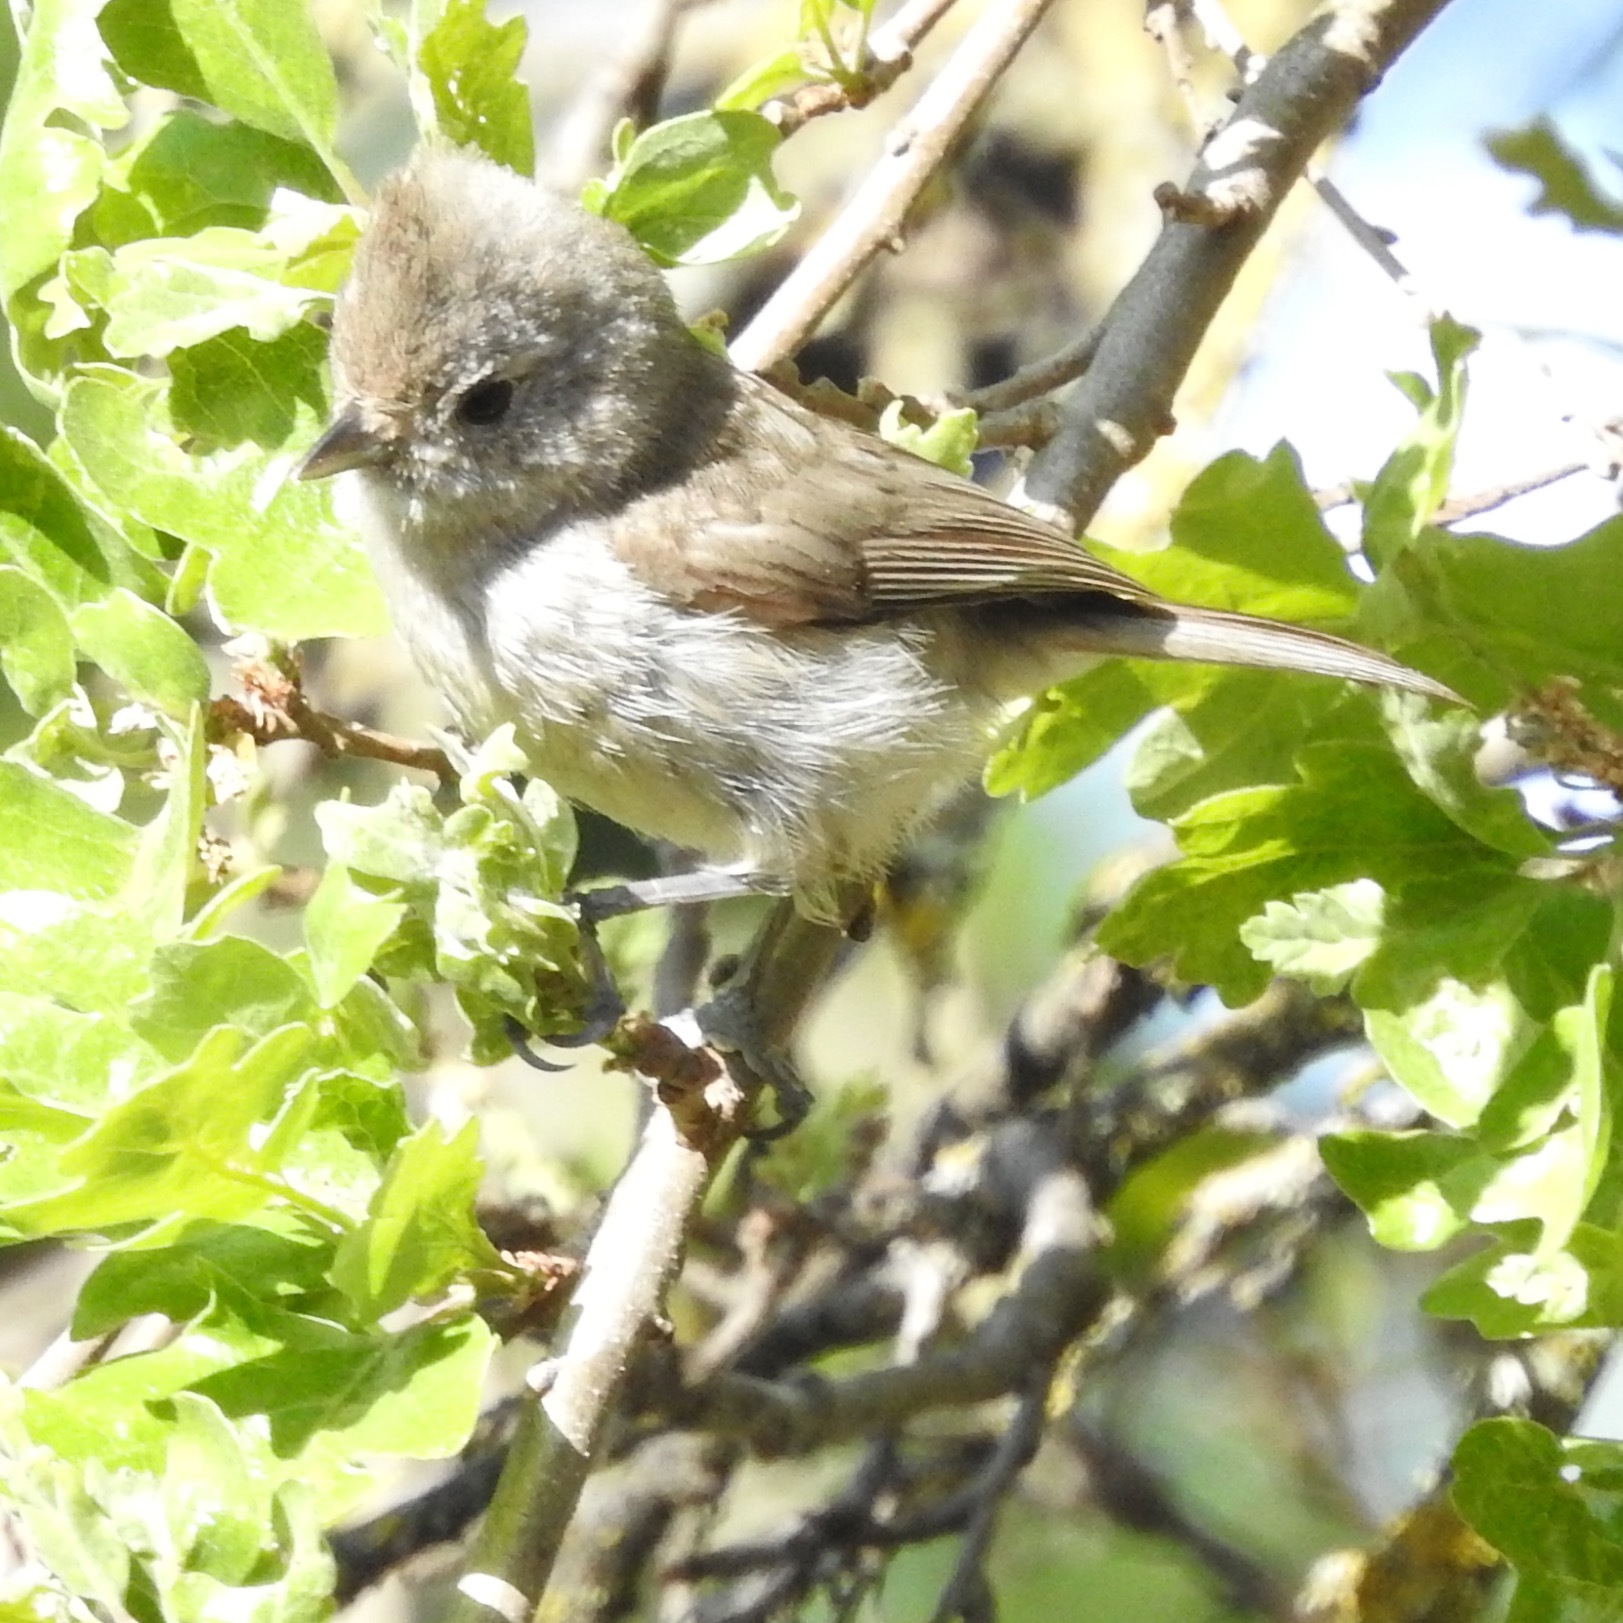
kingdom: Animalia
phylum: Chordata
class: Aves
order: Passeriformes
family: Paridae
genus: Baeolophus
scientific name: Baeolophus inornatus
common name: Oak titmouse
